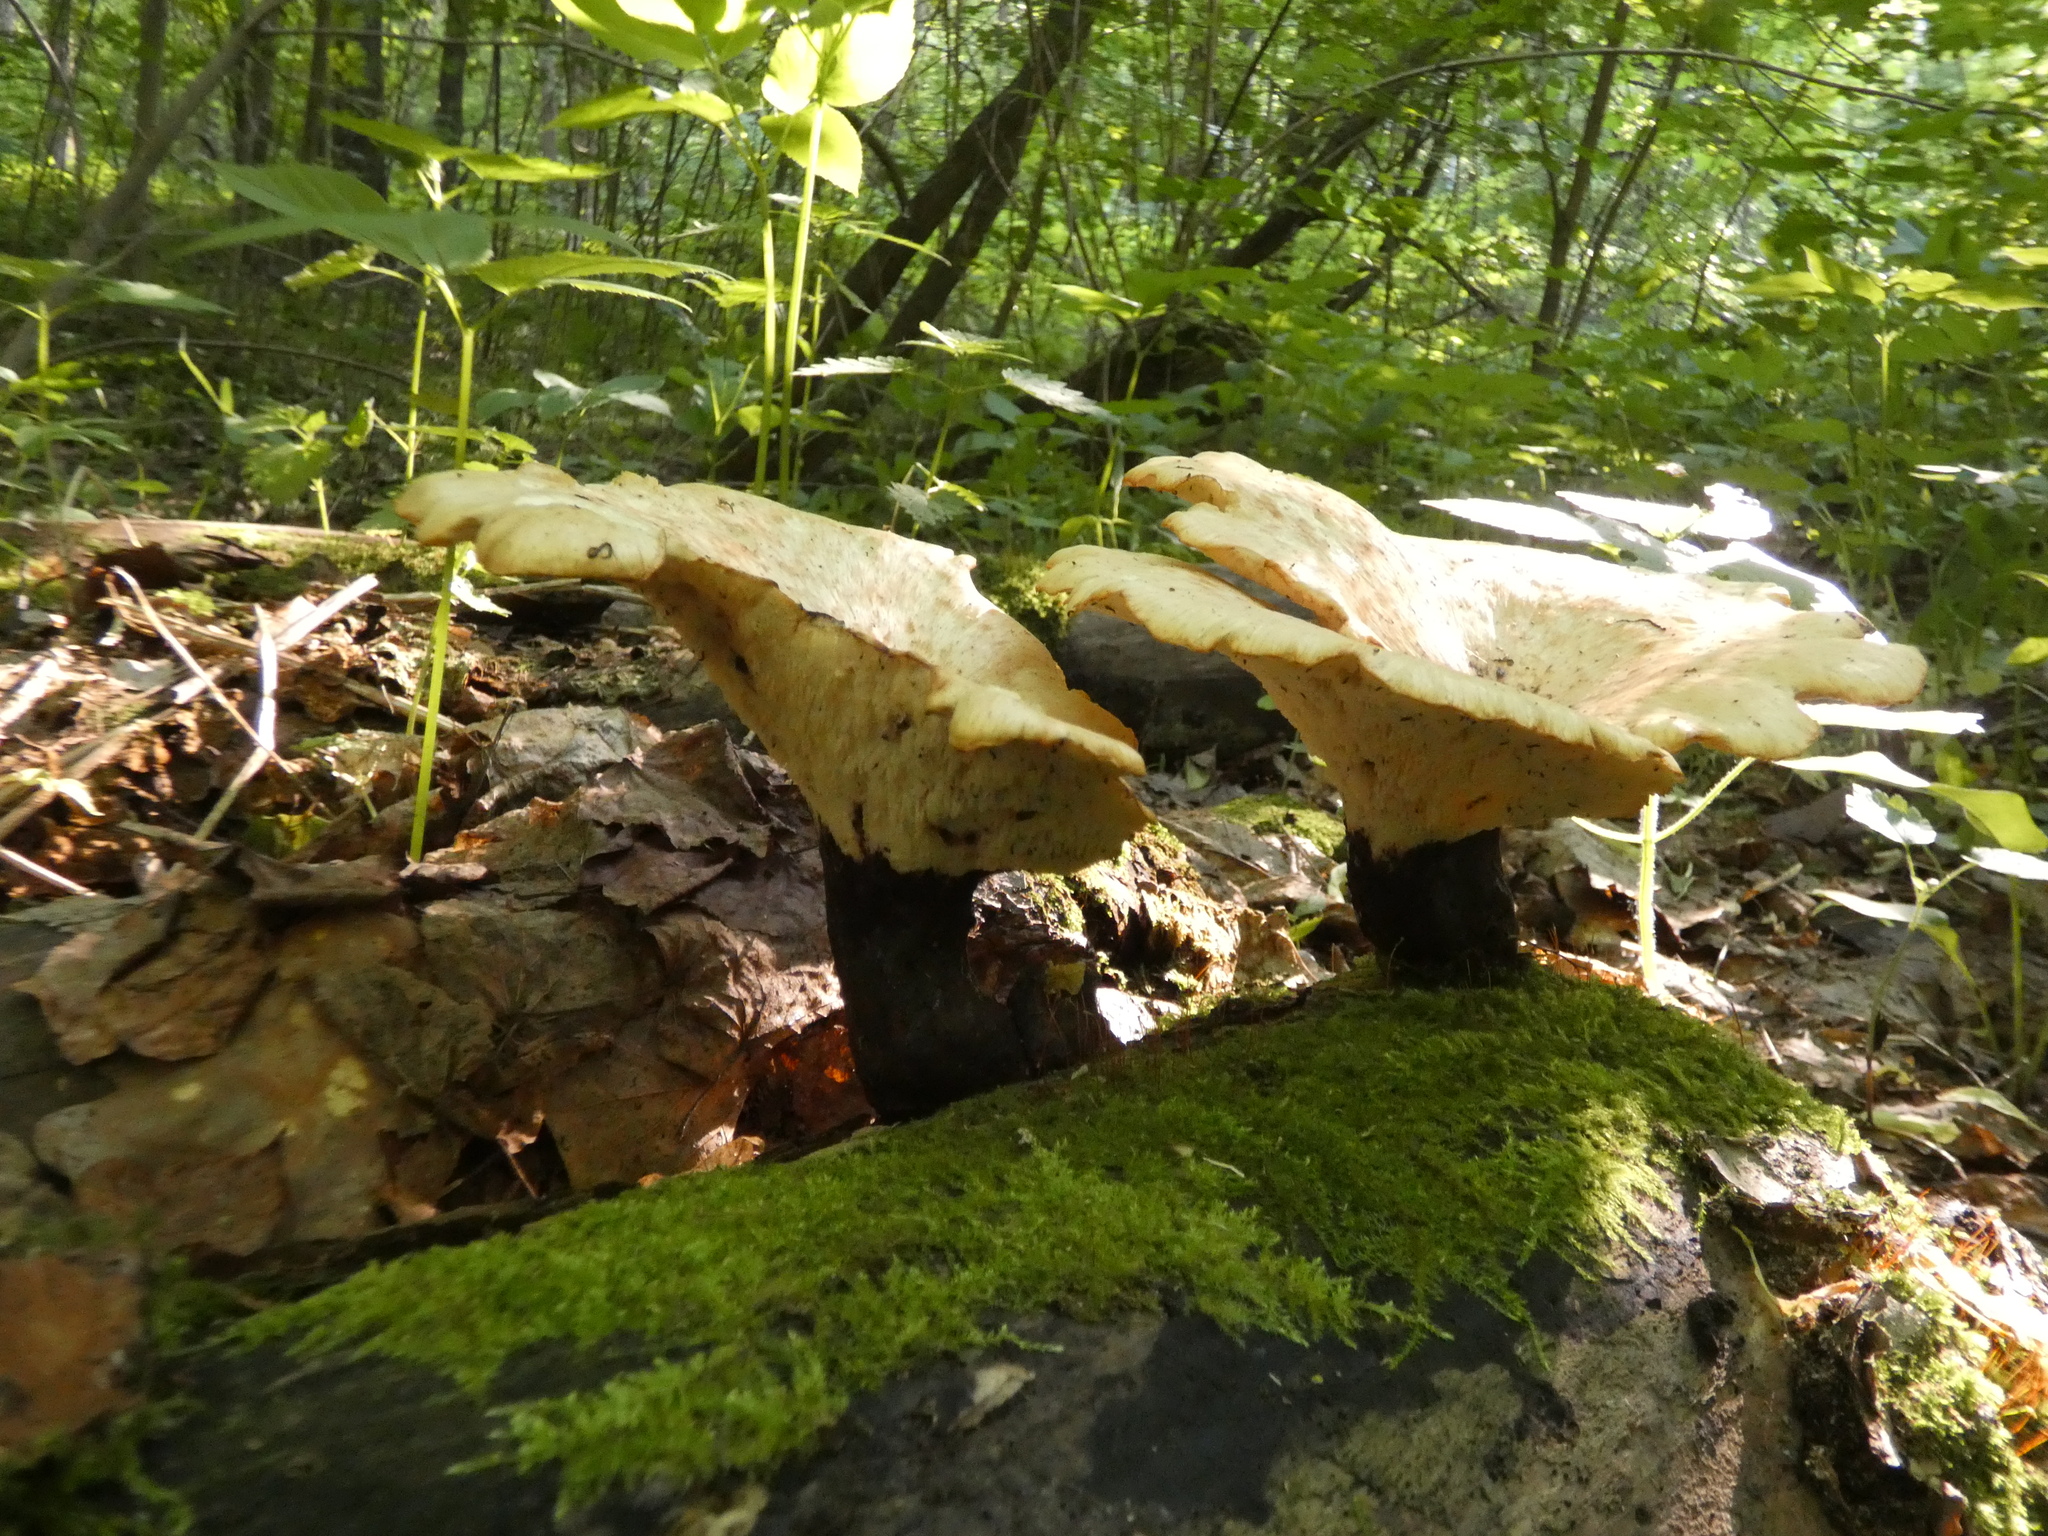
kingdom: Fungi
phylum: Basidiomycota
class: Agaricomycetes
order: Polyporales
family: Polyporaceae
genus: Cerioporus
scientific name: Cerioporus squamosus
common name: Dryad's saddle
